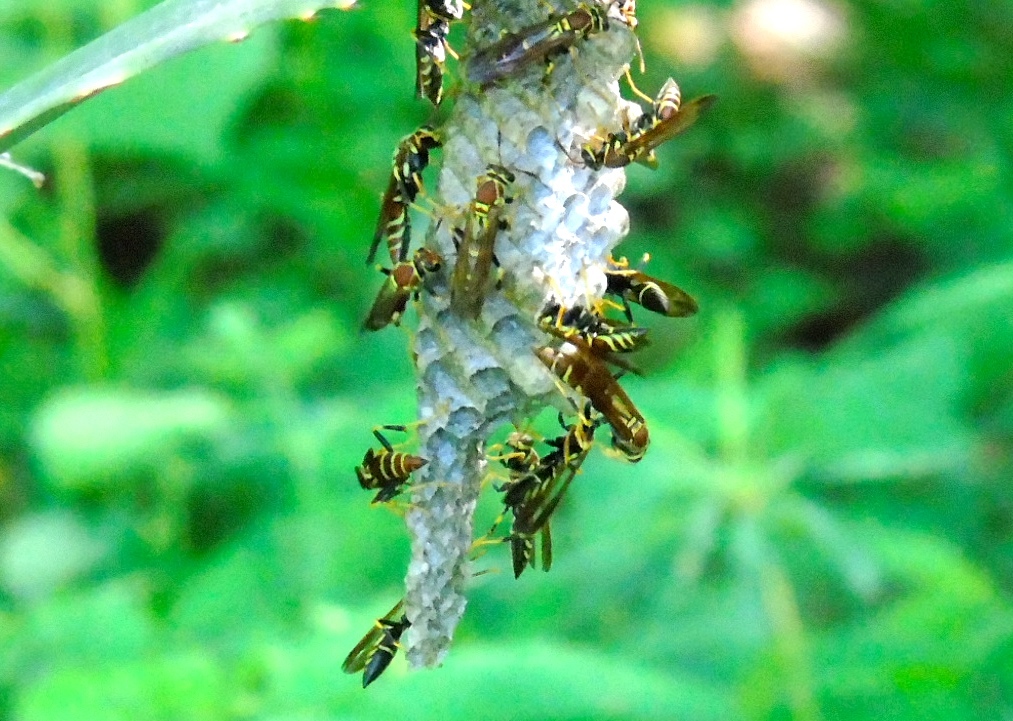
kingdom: Animalia
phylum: Arthropoda
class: Insecta
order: Hymenoptera
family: Eumenidae
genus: Polistes
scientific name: Polistes instabilis
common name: Unstable paper wasp
